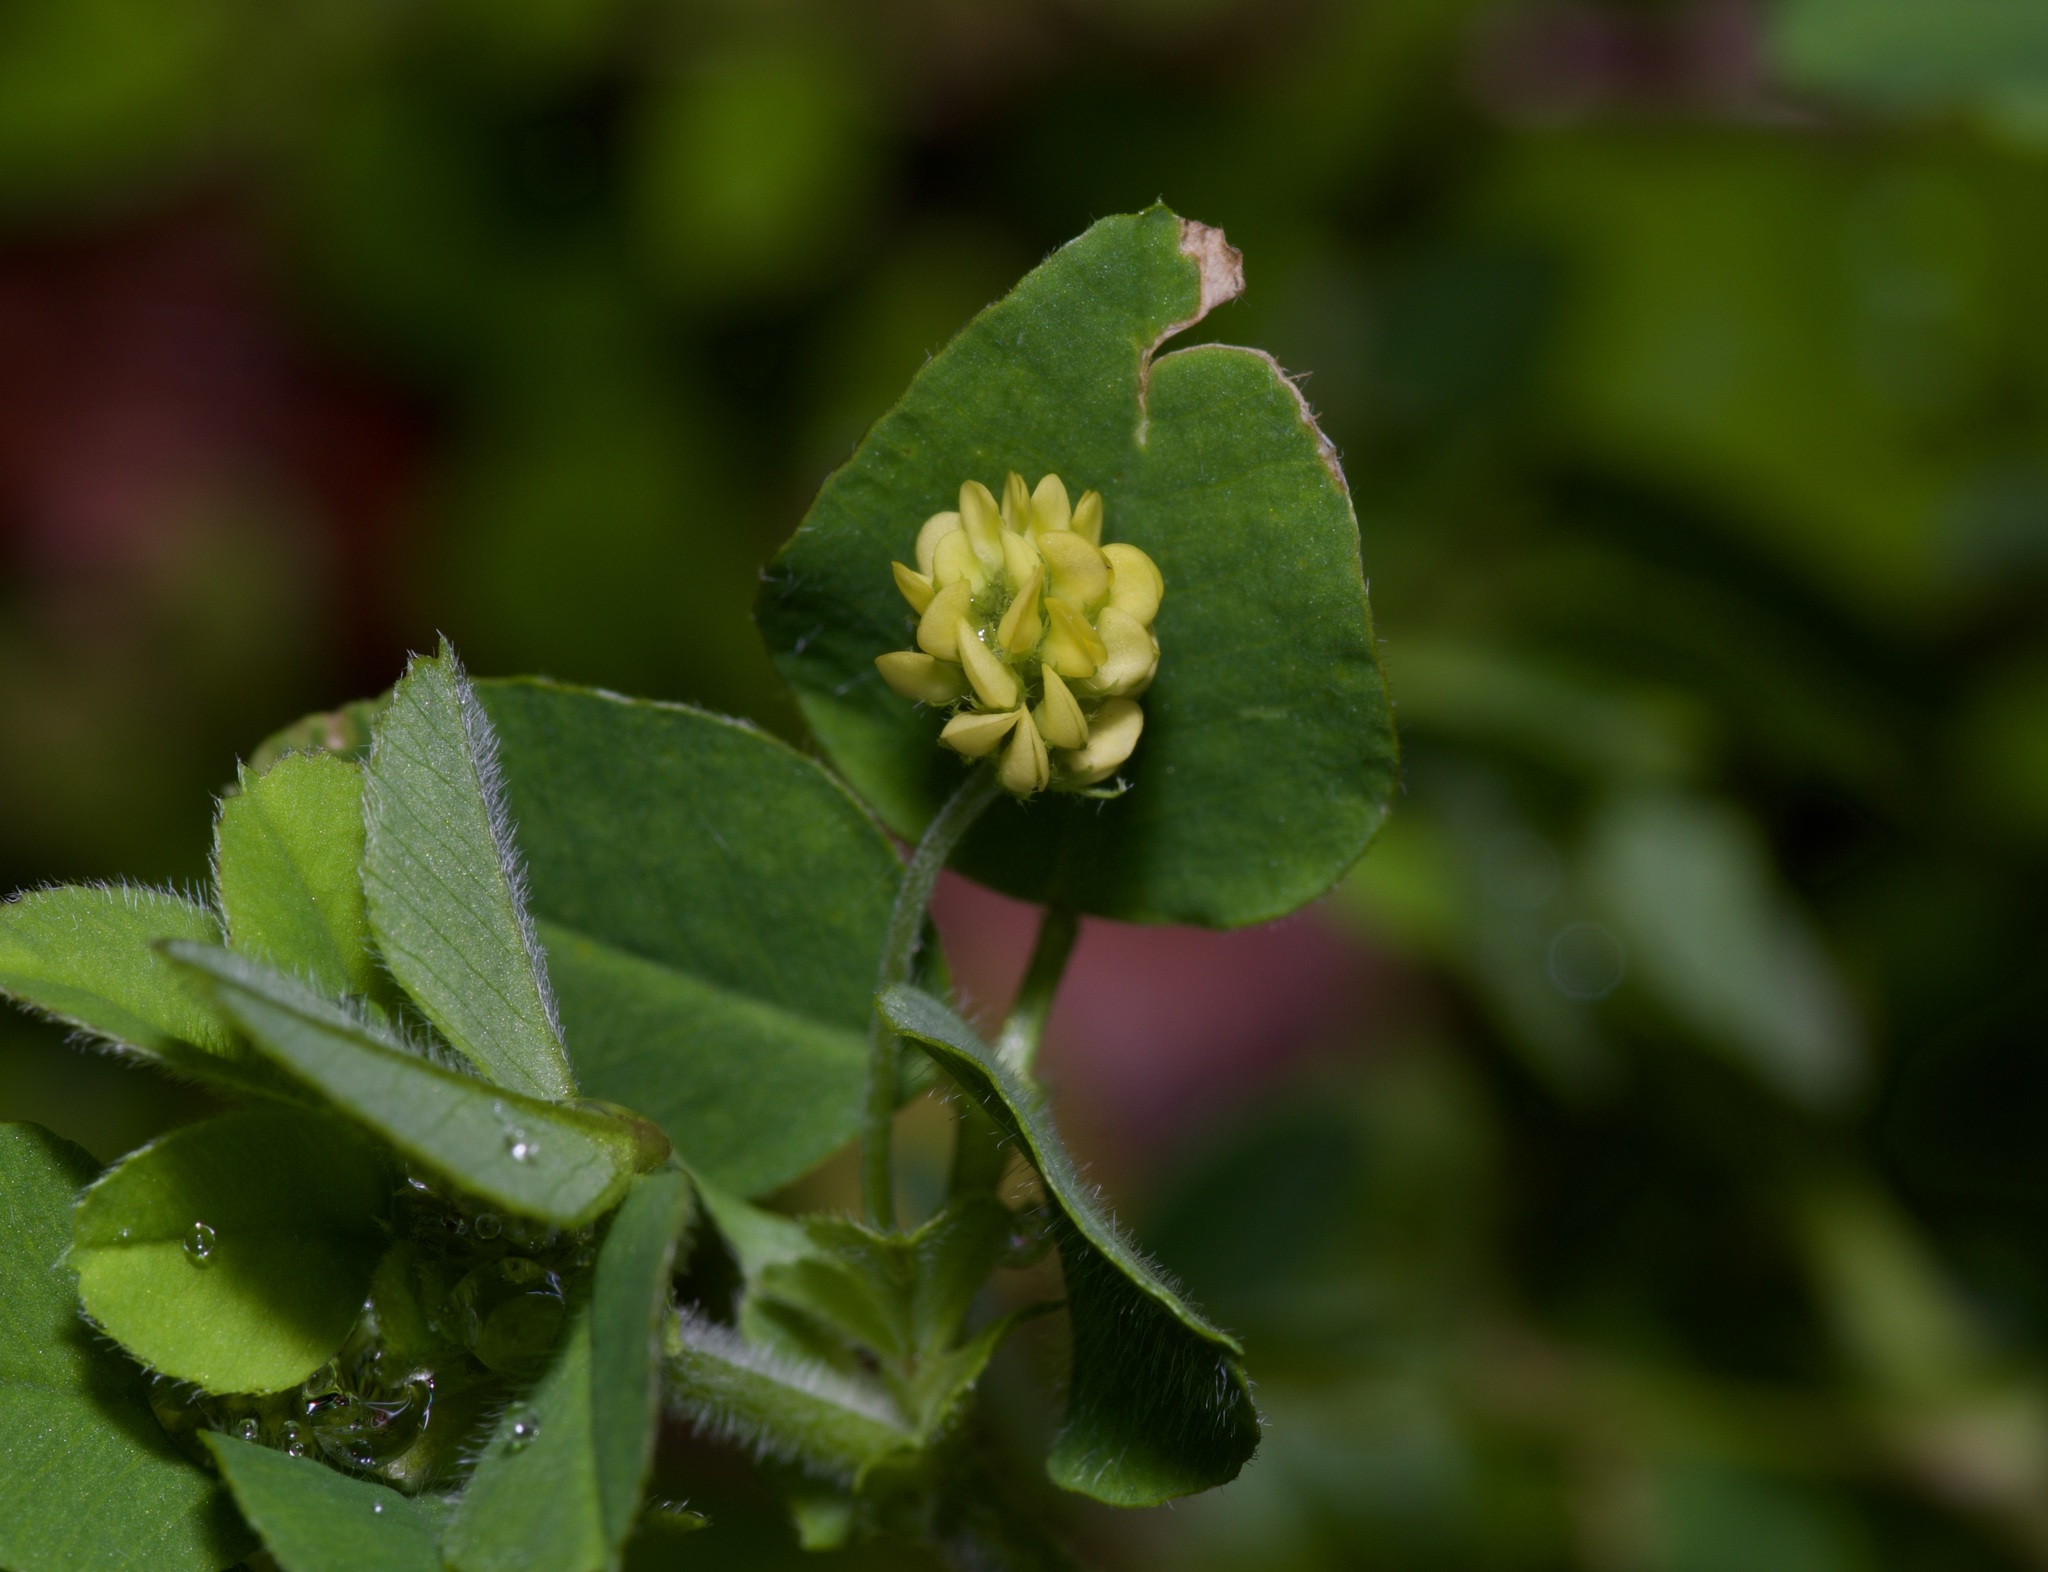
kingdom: Plantae
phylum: Tracheophyta
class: Magnoliopsida
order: Fabales
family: Fabaceae
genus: Medicago
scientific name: Medicago lupulina
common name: Black medick
